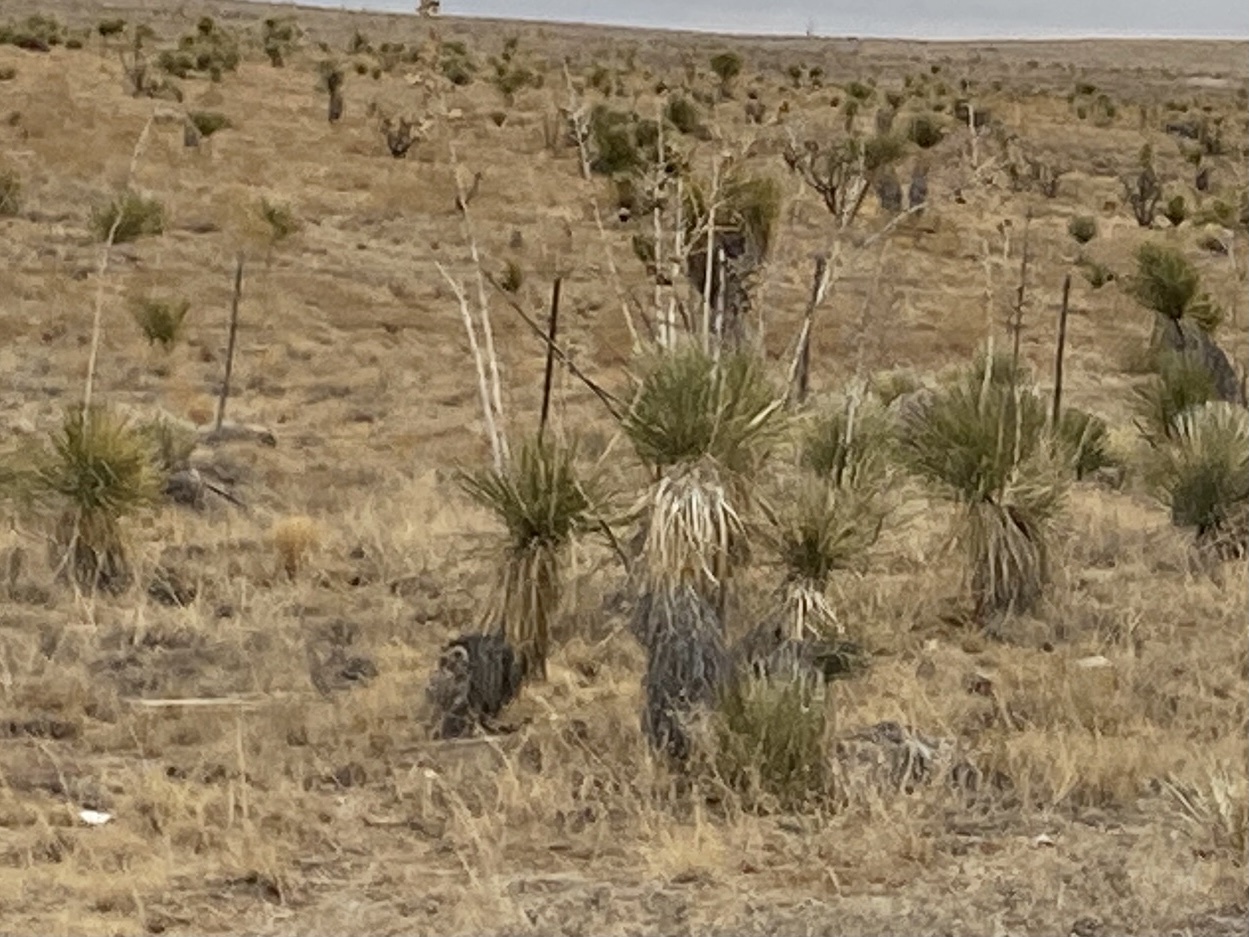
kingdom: Plantae
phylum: Tracheophyta
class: Liliopsida
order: Asparagales
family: Asparagaceae
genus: Yucca
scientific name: Yucca elata
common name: Palmella
